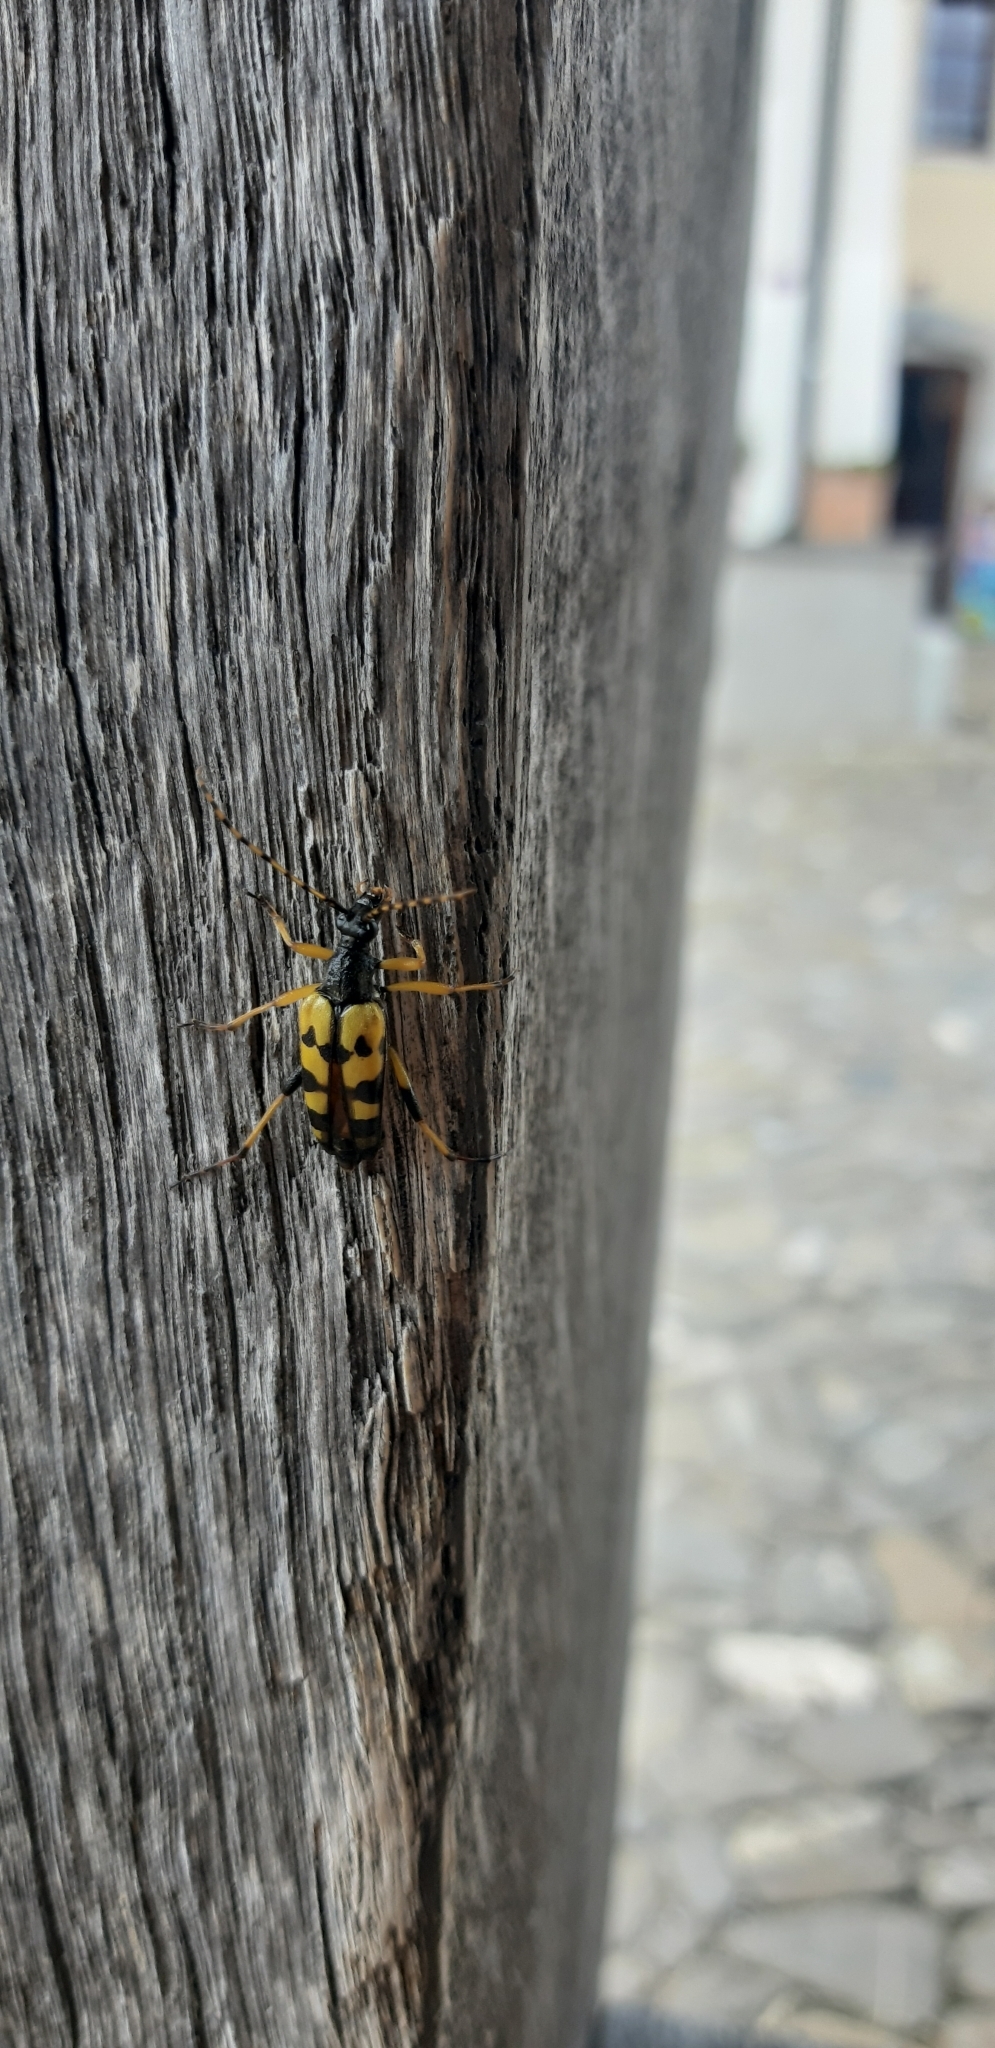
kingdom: Animalia
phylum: Arthropoda
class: Insecta
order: Coleoptera
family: Cerambycidae
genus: Rutpela
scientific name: Rutpela maculata
